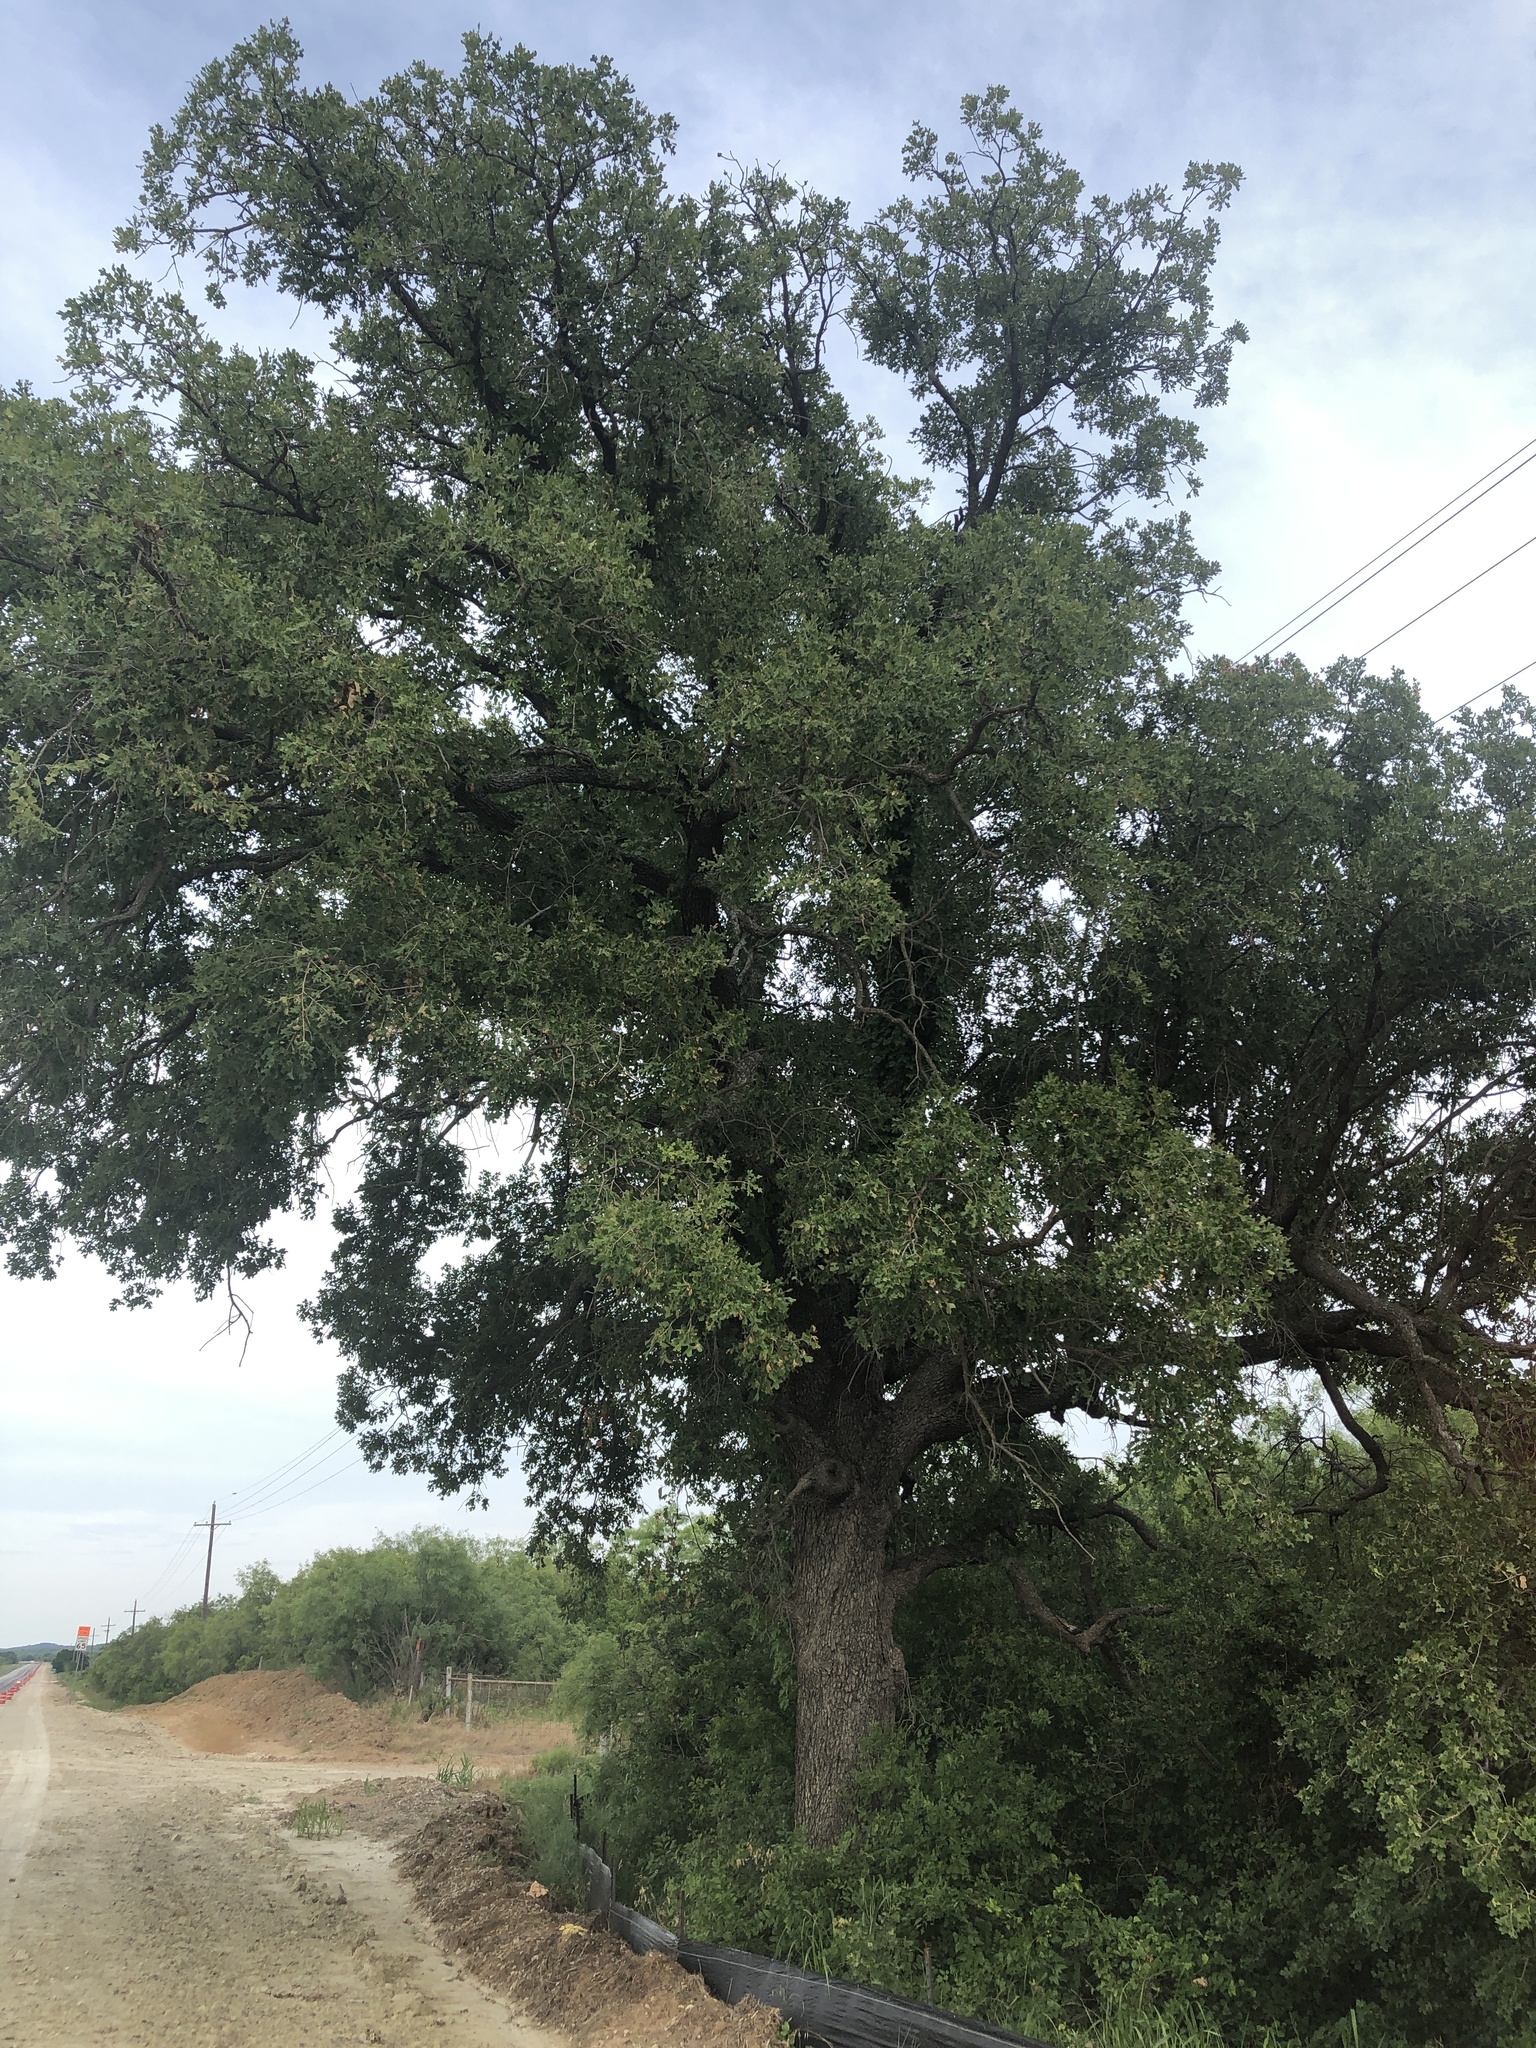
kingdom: Plantae
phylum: Tracheophyta
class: Magnoliopsida
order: Fagales
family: Fagaceae
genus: Quercus
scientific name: Quercus stellata
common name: Post oak
